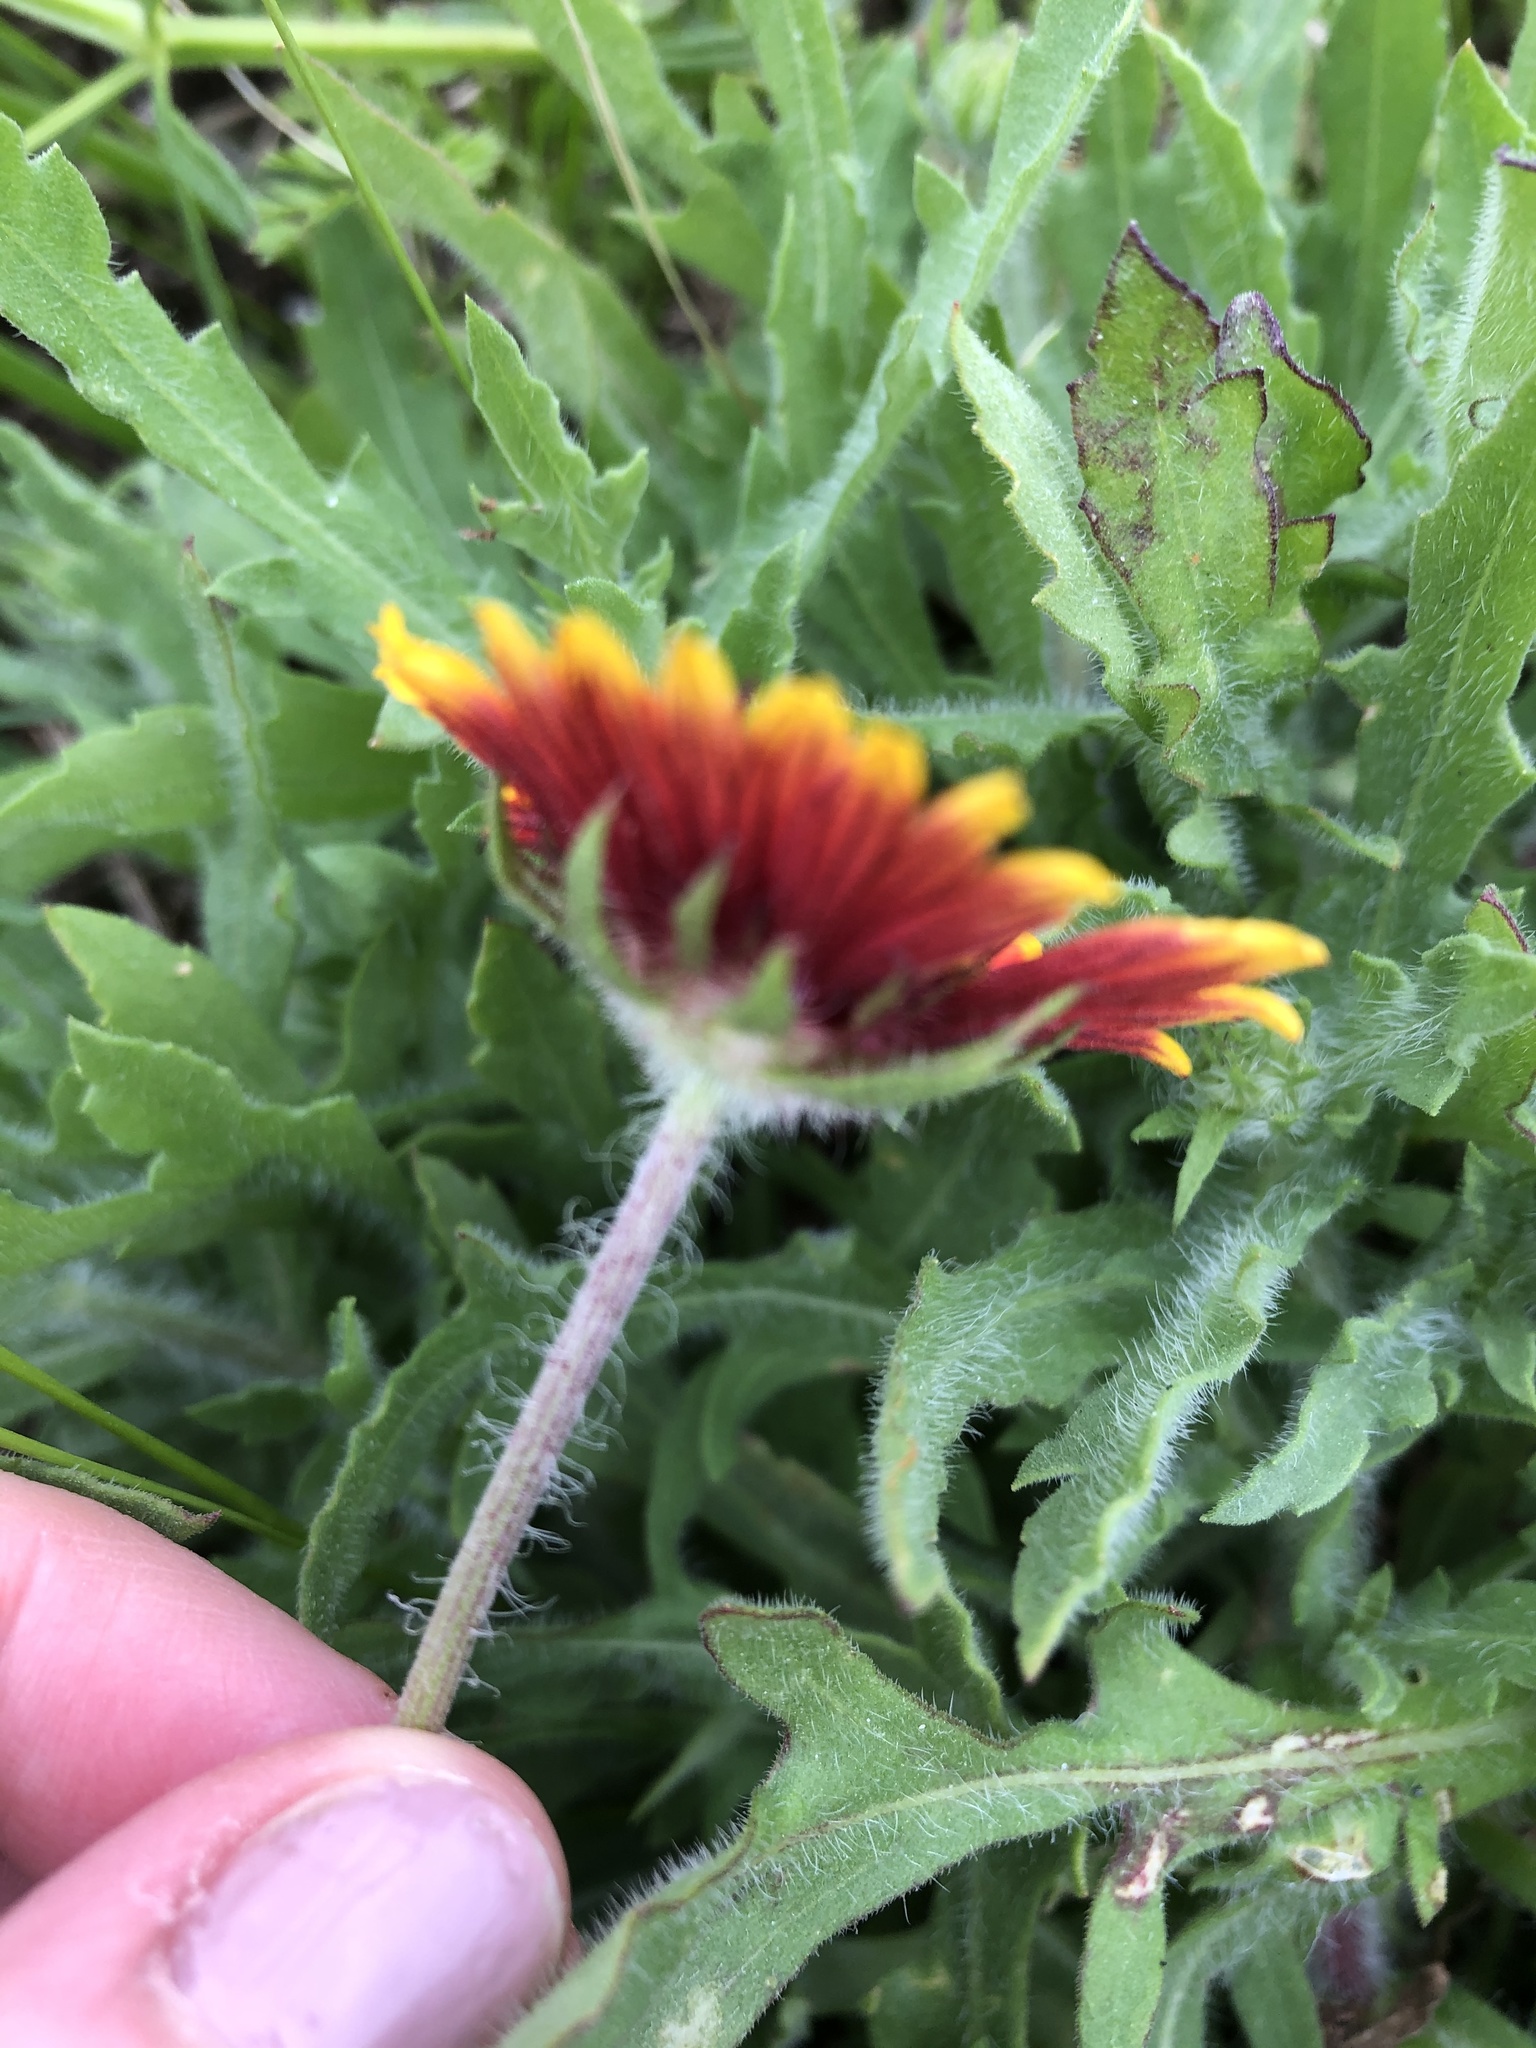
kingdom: Plantae
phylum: Tracheophyta
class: Magnoliopsida
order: Asterales
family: Asteraceae
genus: Gaillardia
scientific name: Gaillardia pulchella
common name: Firewheel
